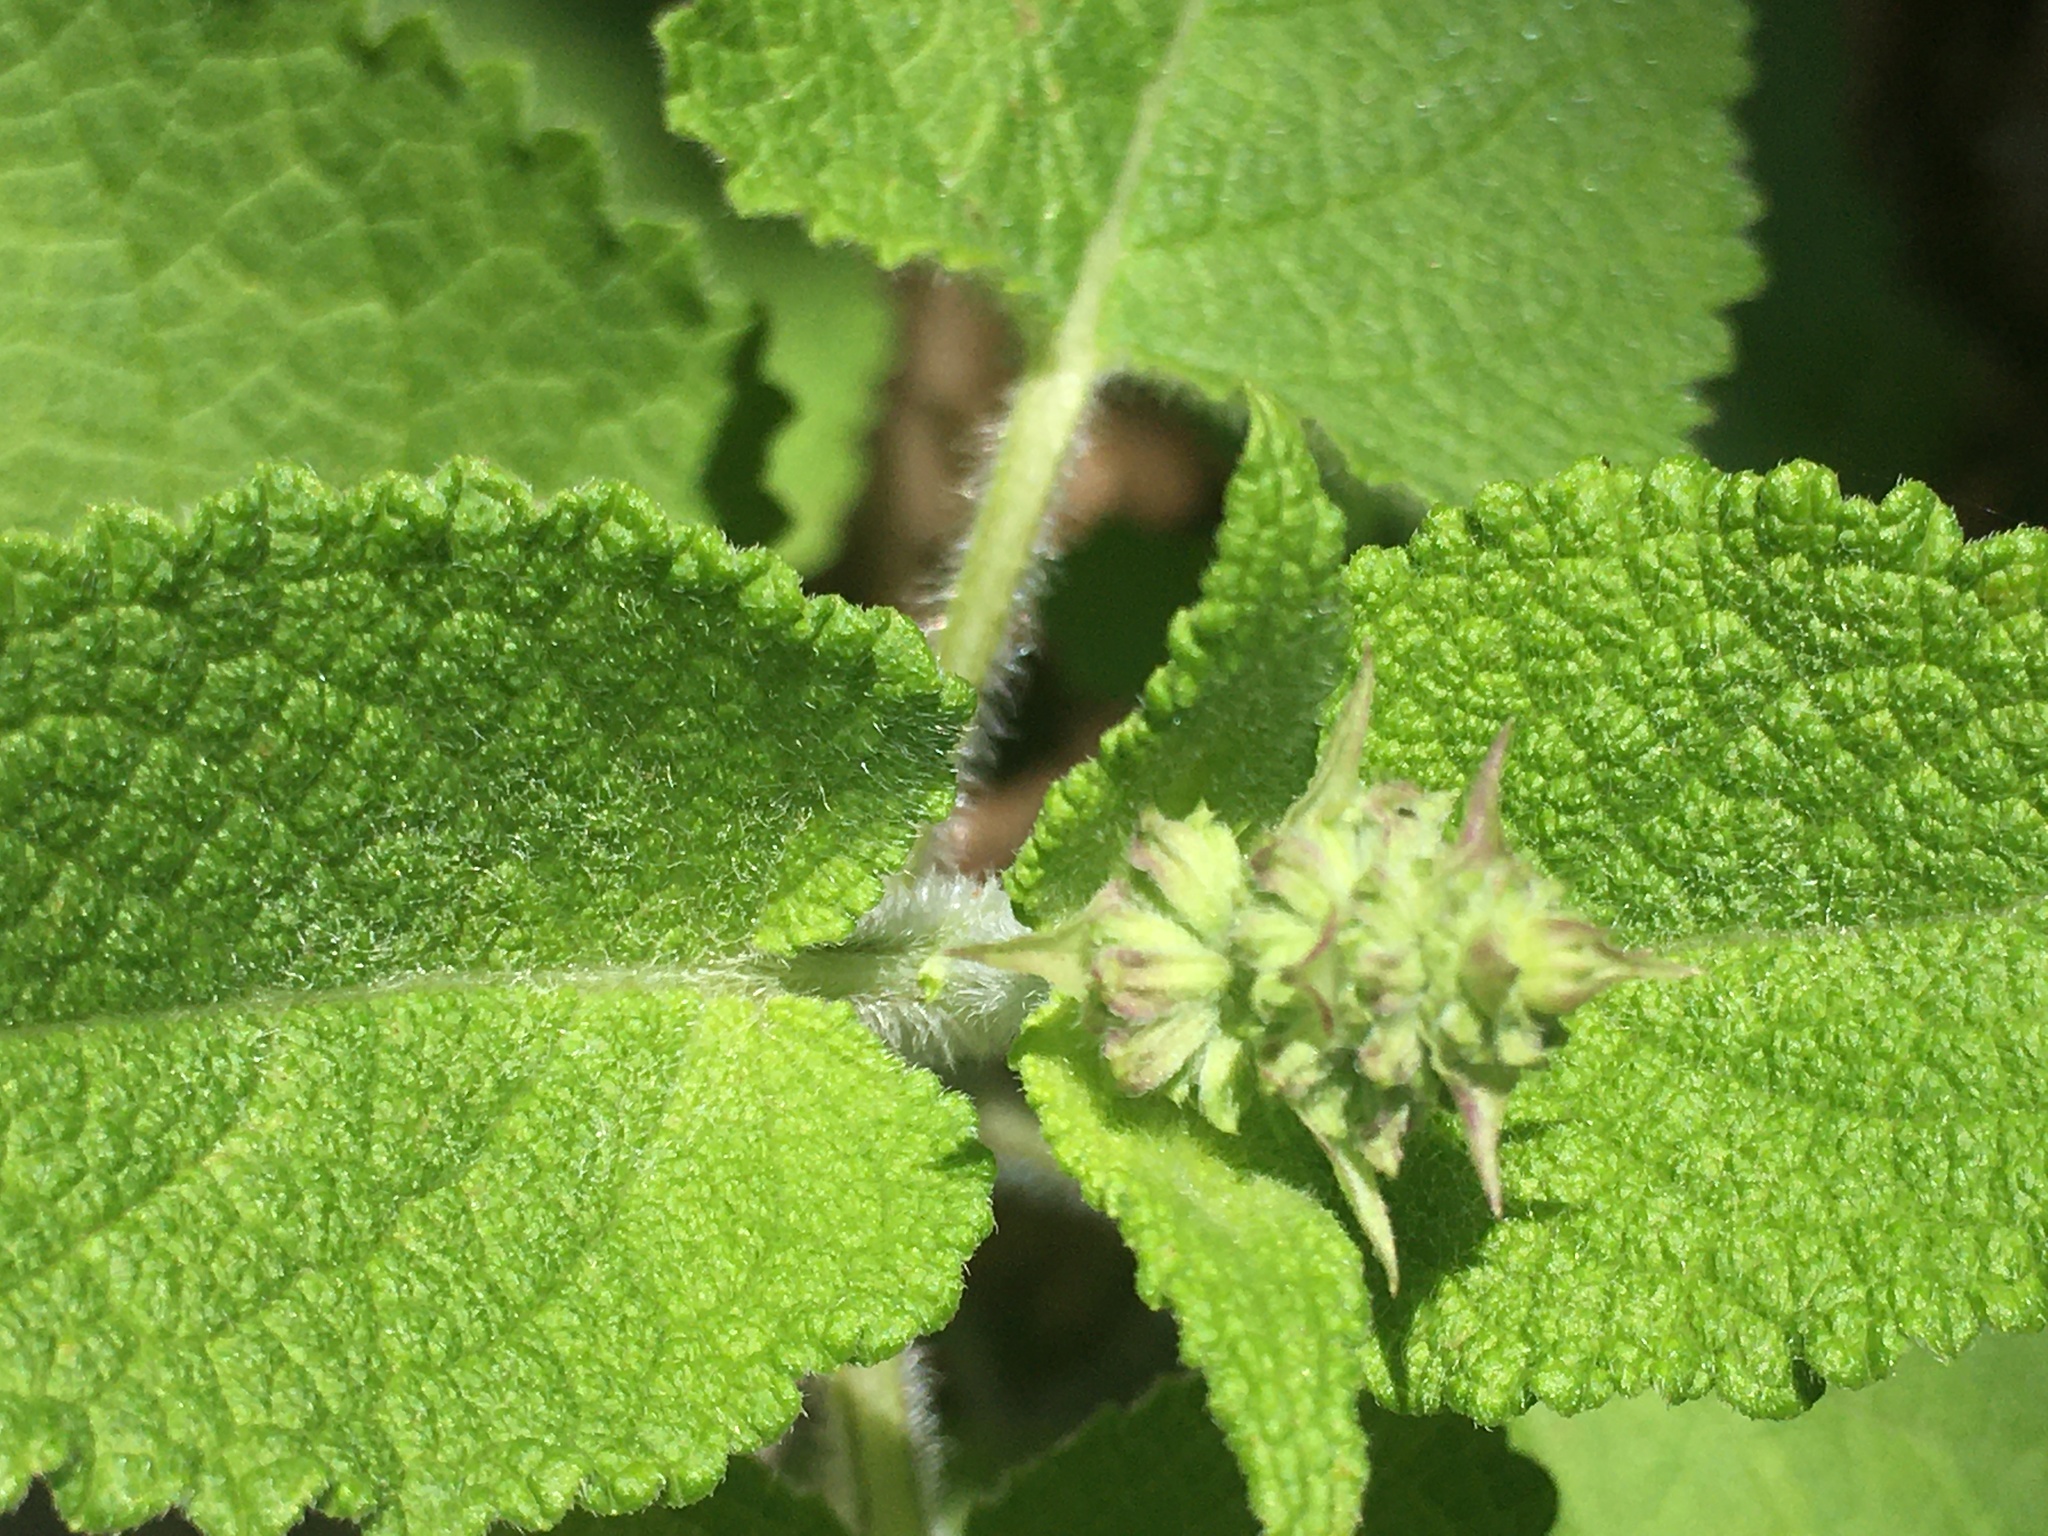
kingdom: Plantae
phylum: Tracheophyta
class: Magnoliopsida
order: Lamiales
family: Lamiaceae
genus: Salvia
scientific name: Salvia sclarea
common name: Clary
